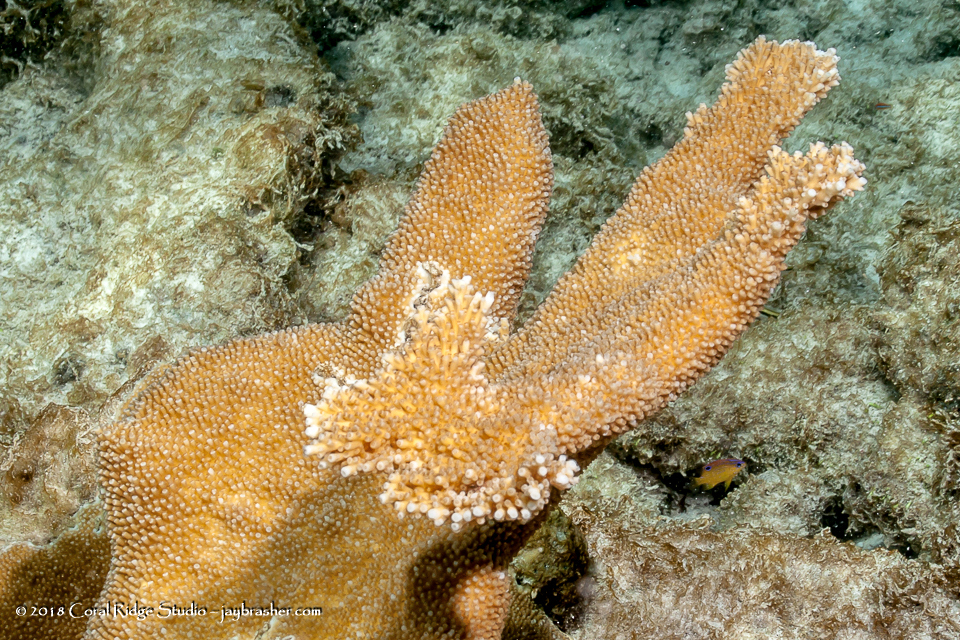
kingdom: Animalia
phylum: Cnidaria
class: Anthozoa
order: Scleractinia
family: Acroporidae
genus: Acropora
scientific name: Acropora palmata
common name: Elkhorn coral
